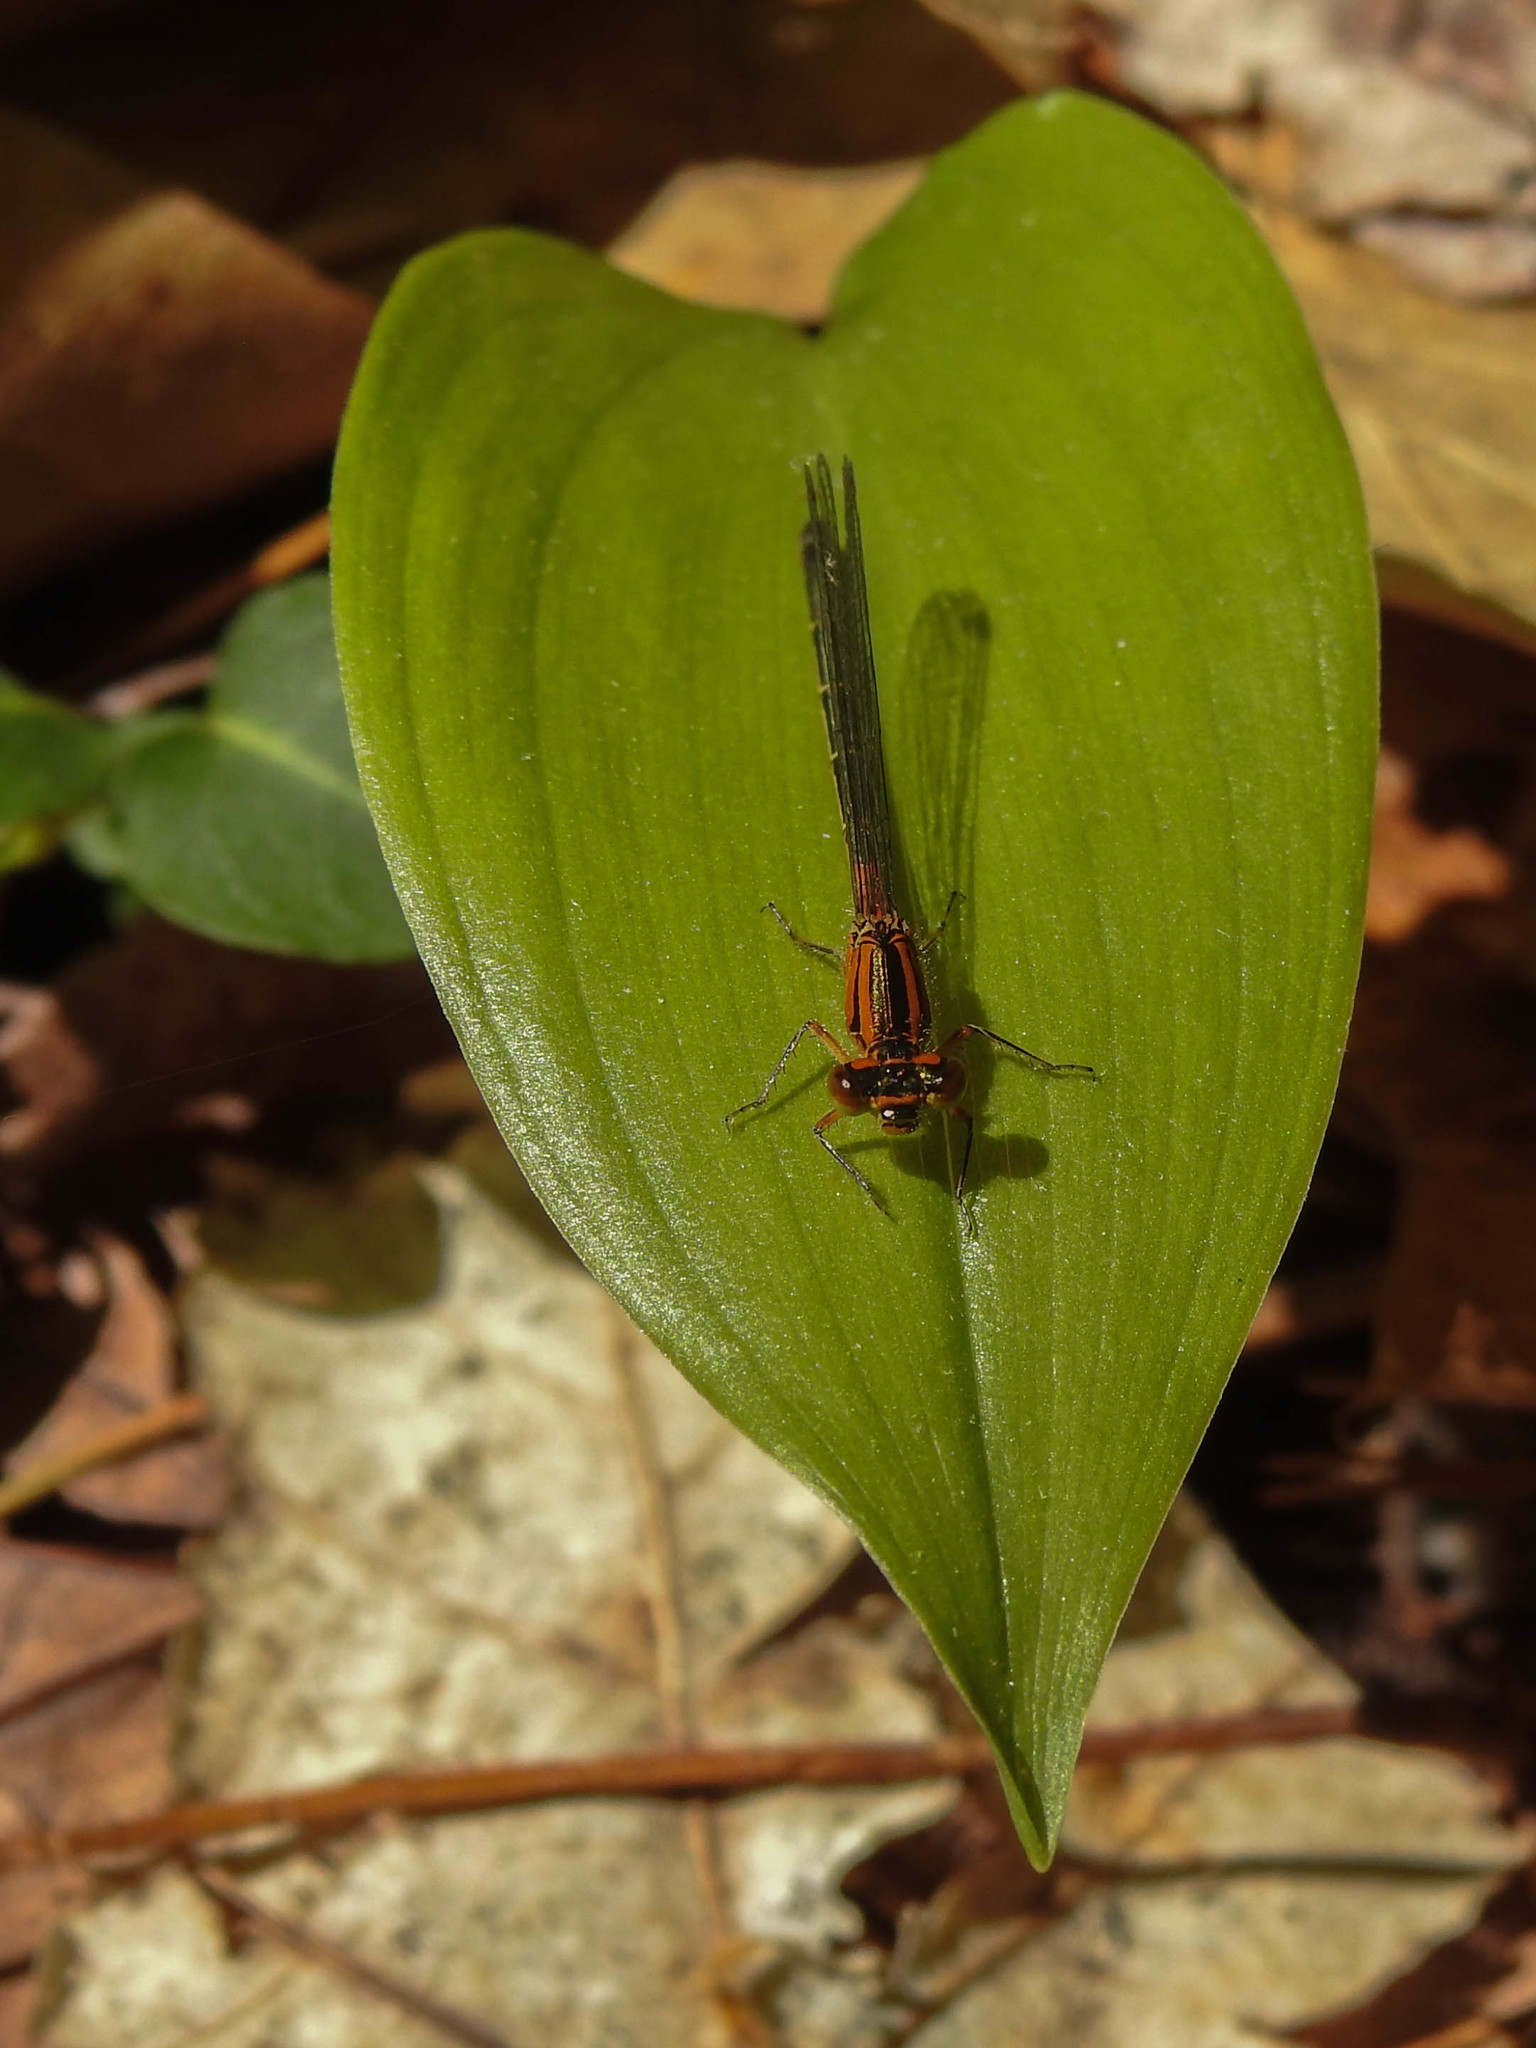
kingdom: Animalia
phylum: Arthropoda
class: Insecta
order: Odonata
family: Coenagrionidae
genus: Ischnura
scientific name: Ischnura verticalis
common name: Eastern forktail
